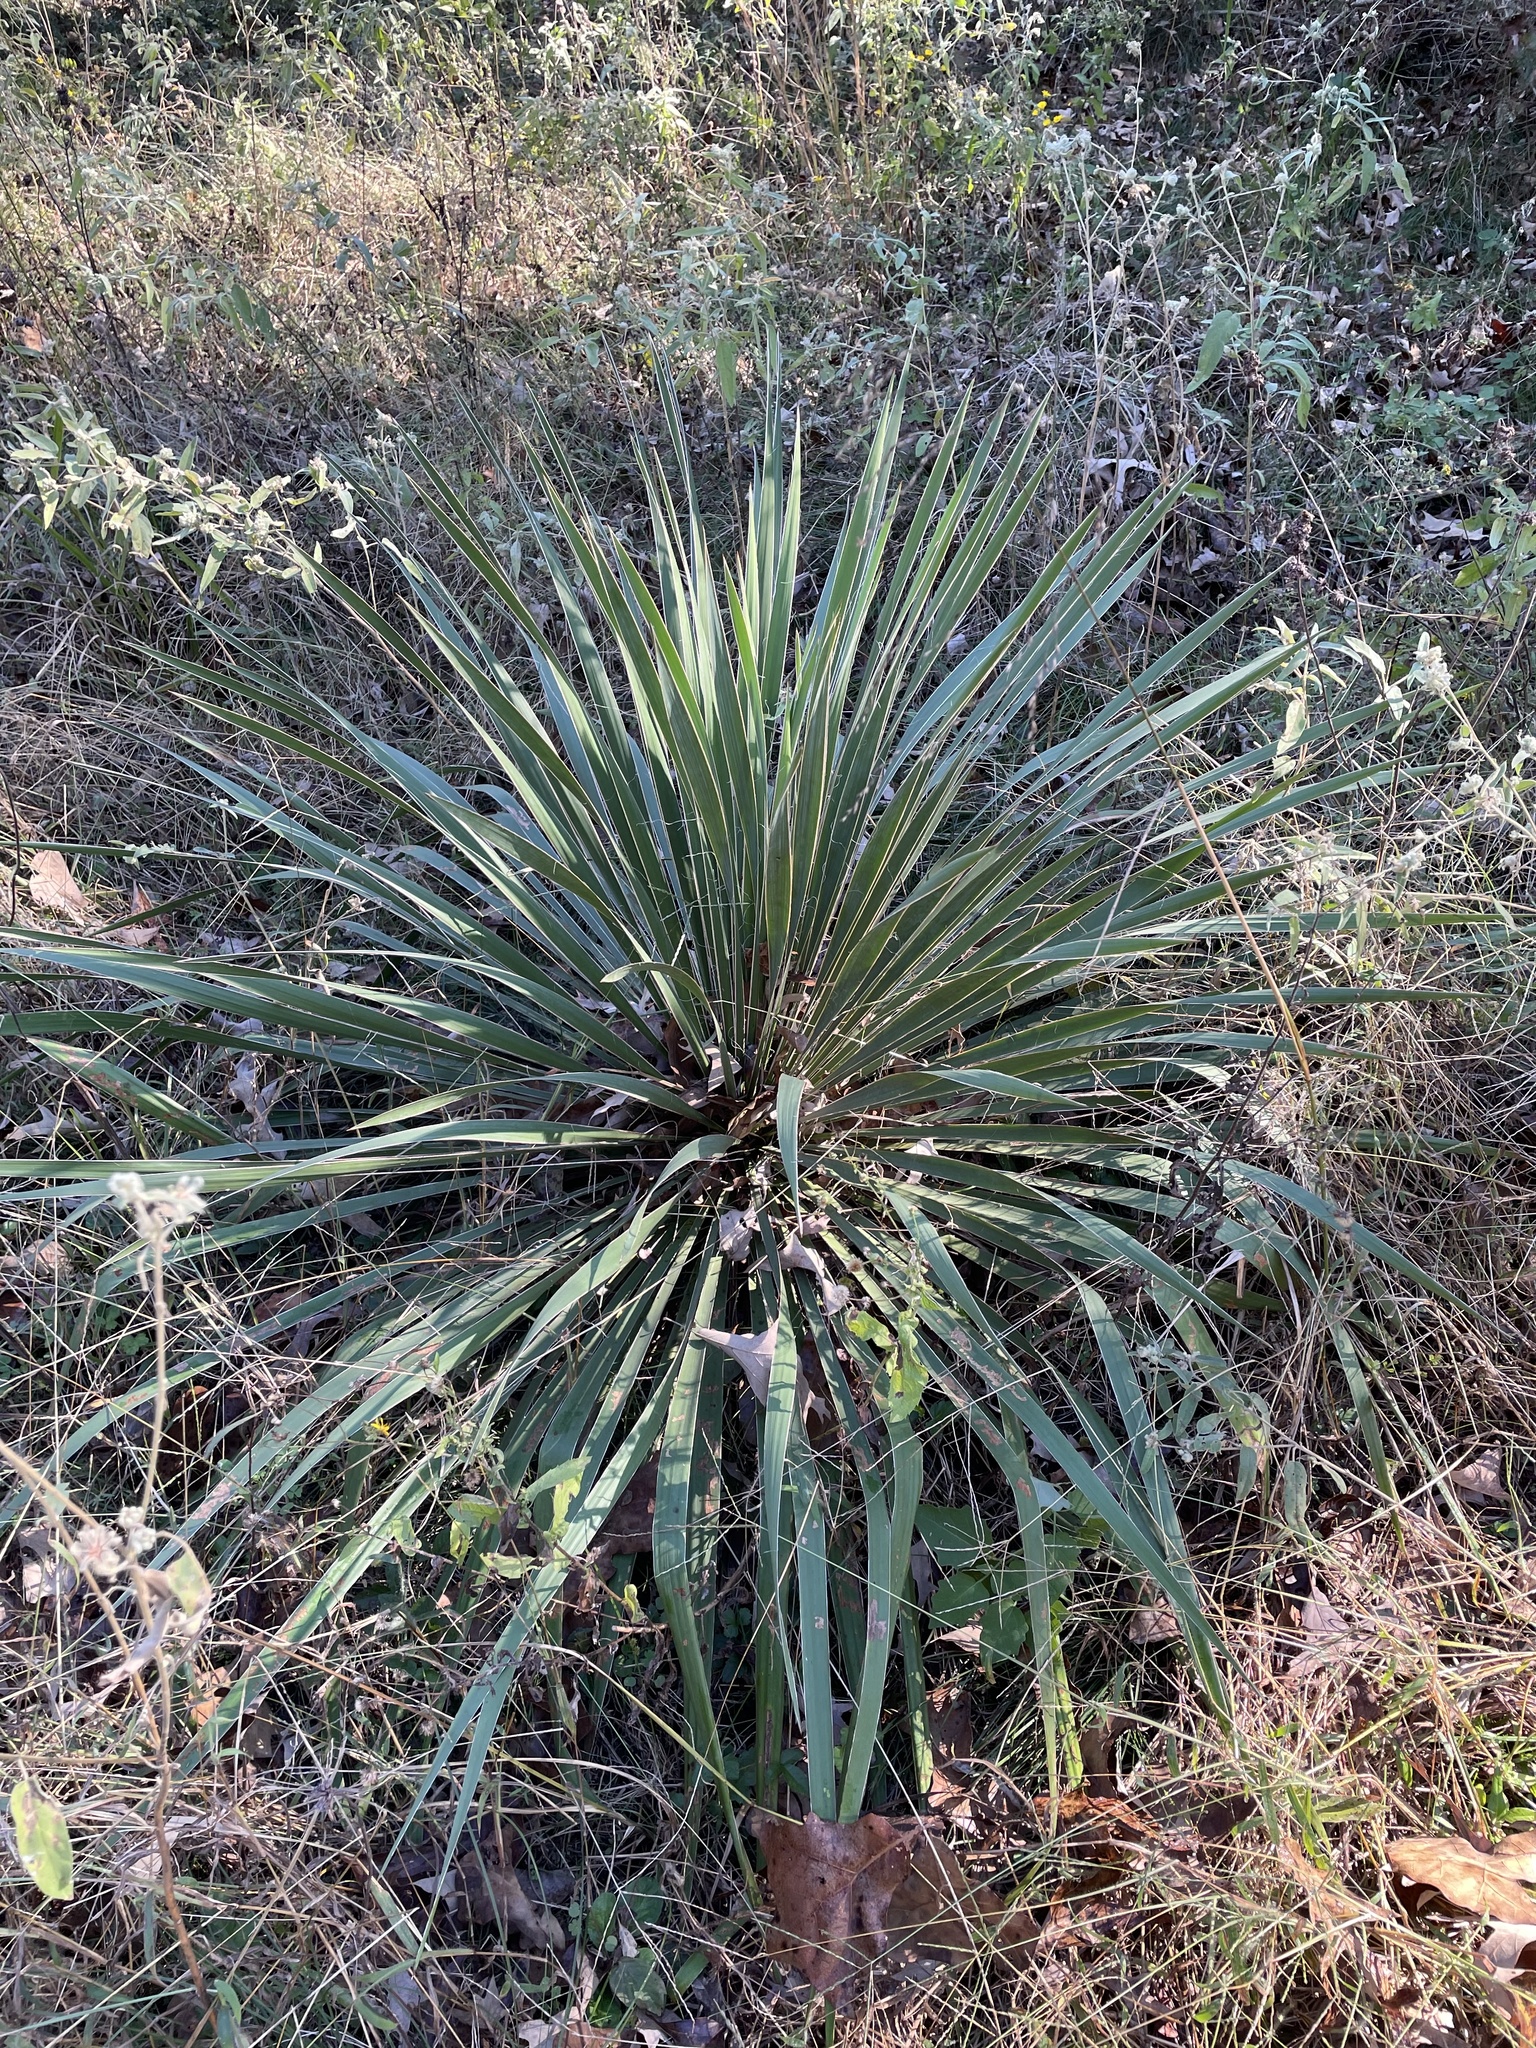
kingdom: Plantae
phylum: Tracheophyta
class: Liliopsida
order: Asparagales
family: Asparagaceae
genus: Yucca
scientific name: Yucca flaccida
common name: Adam's-needle
